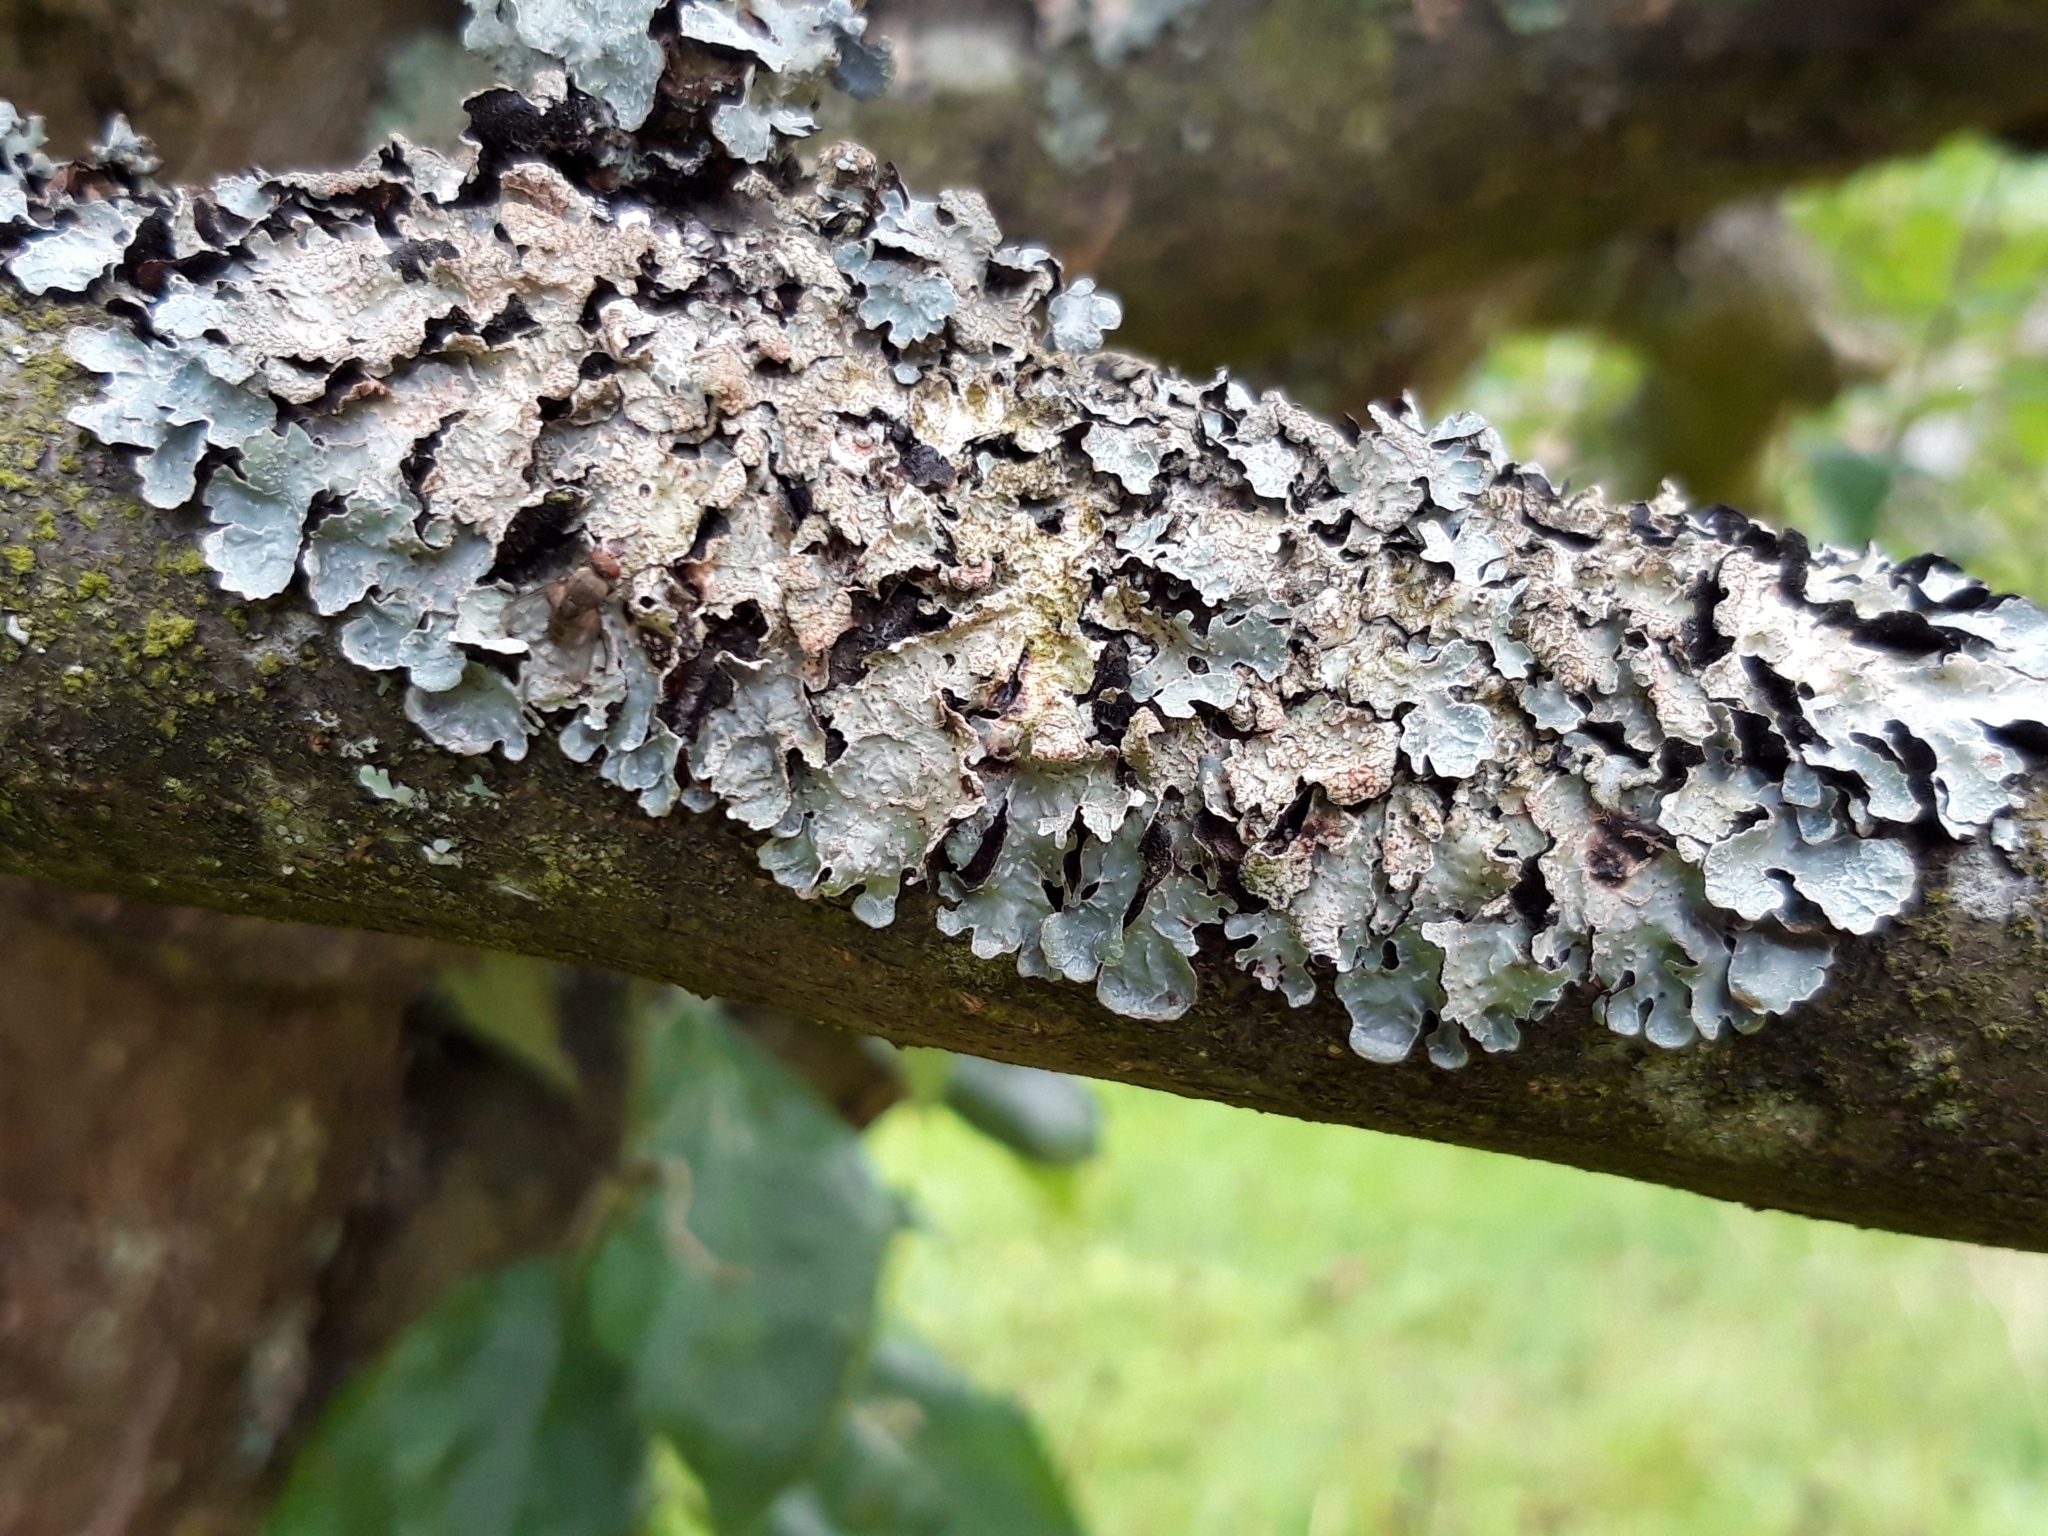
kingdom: Fungi
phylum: Ascomycota
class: Lecanoromycetes
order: Lecanorales
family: Parmeliaceae
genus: Parmelia
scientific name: Parmelia sulcata
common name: Netted shield lichen
